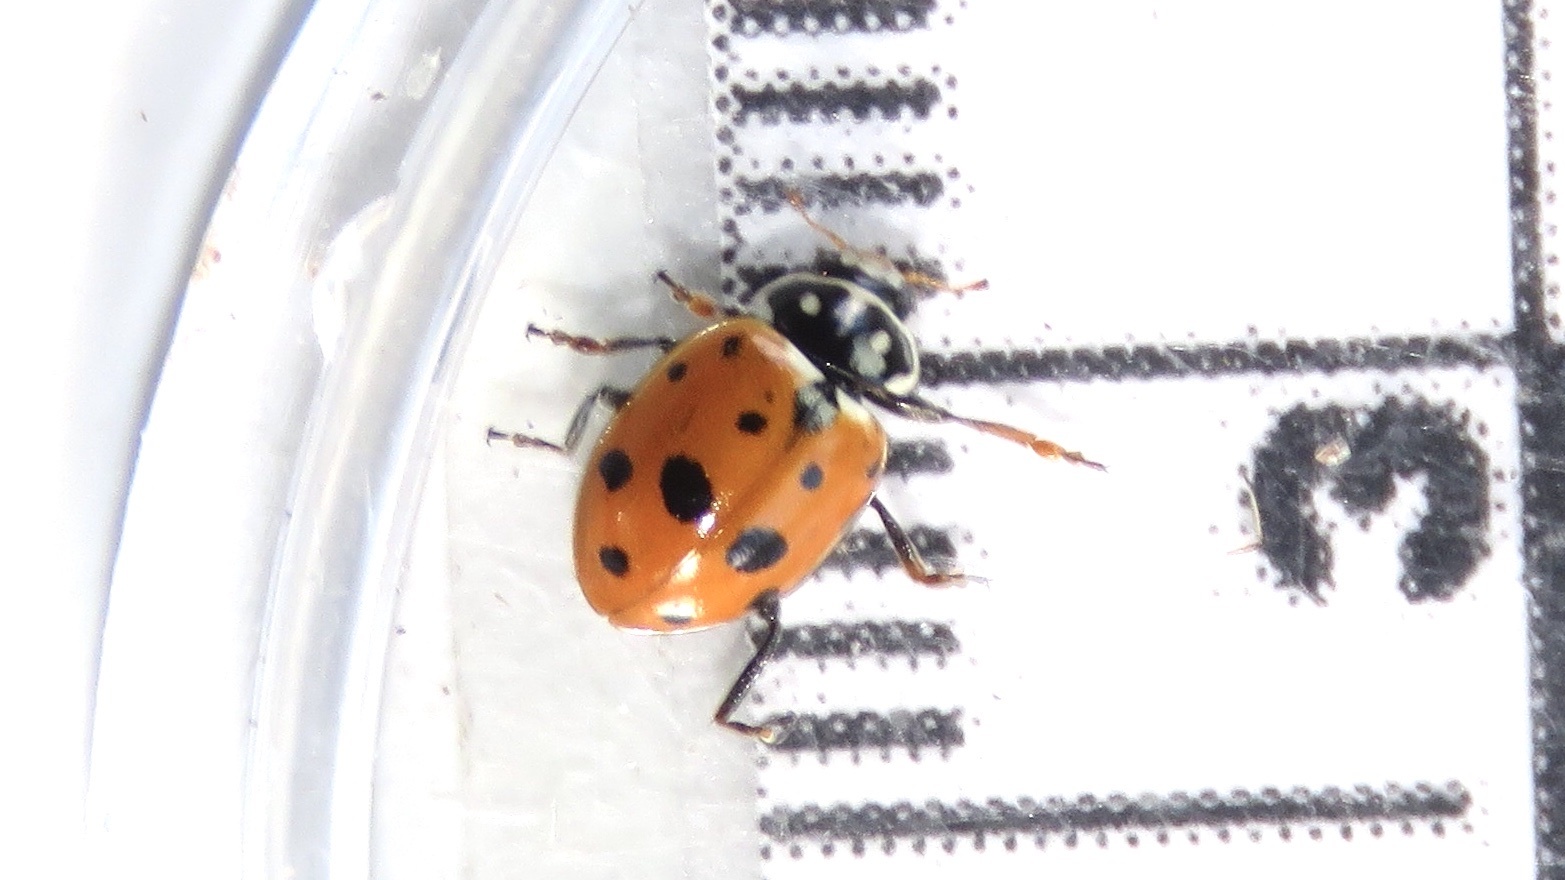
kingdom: Animalia
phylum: Arthropoda
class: Insecta
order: Coleoptera
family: Coccinellidae
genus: Hippodamia
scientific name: Hippodamia variegata
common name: Ladybird beetle
